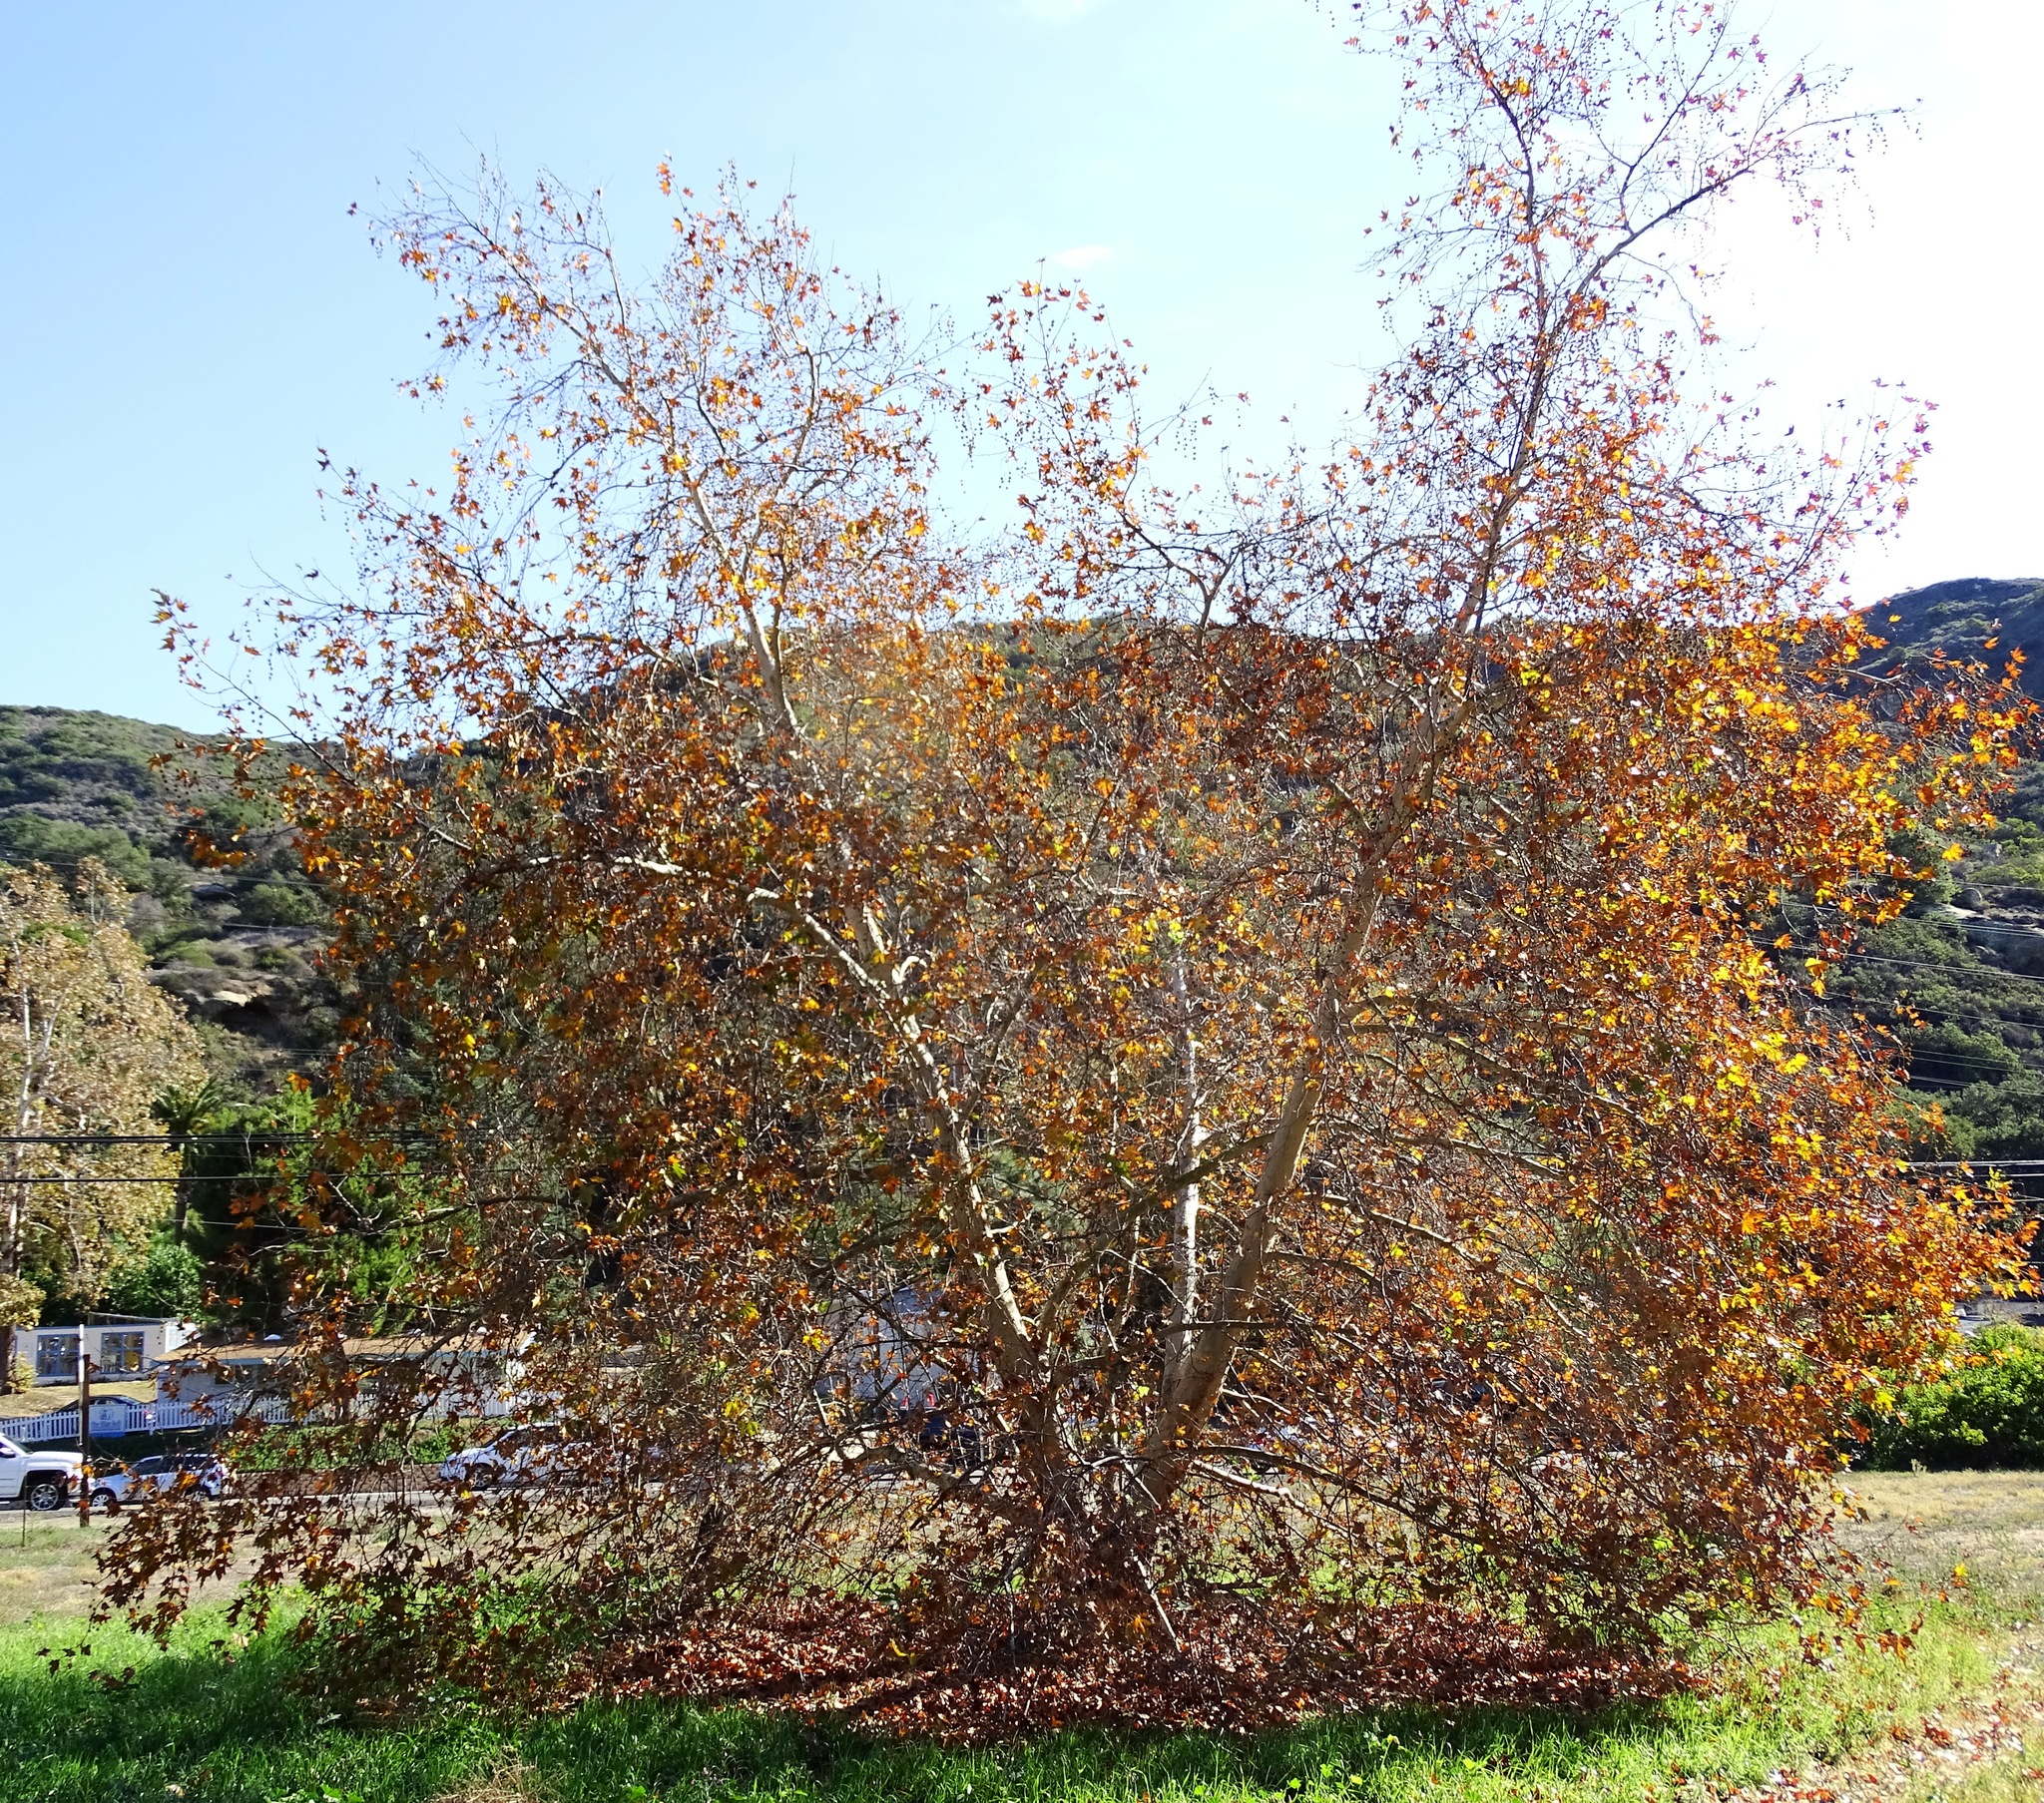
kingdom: Plantae
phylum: Tracheophyta
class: Magnoliopsida
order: Proteales
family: Platanaceae
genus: Platanus
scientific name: Platanus racemosa
